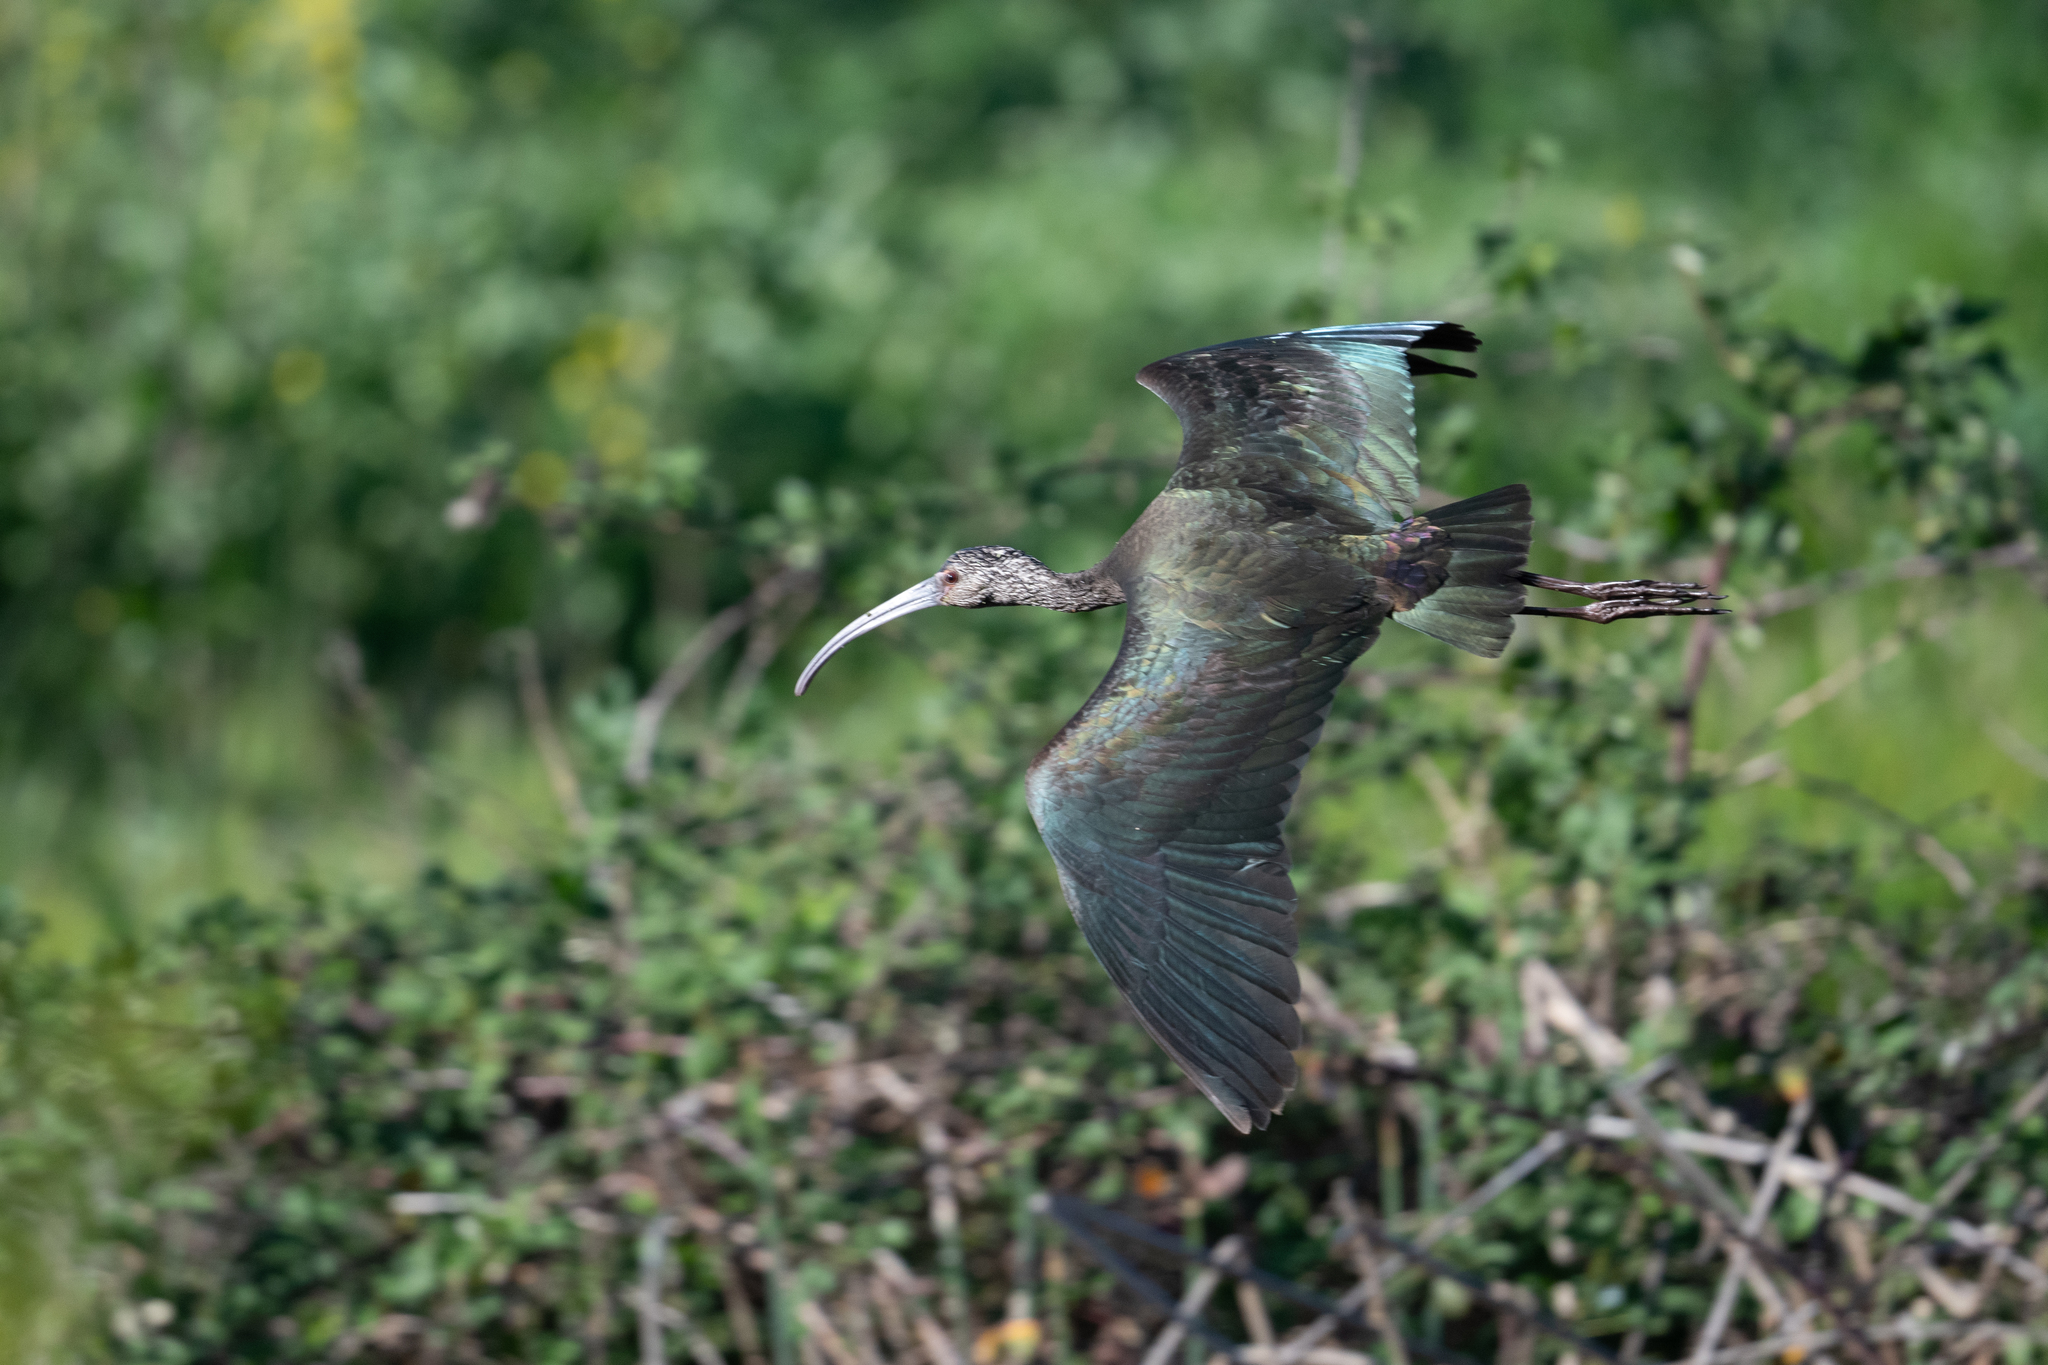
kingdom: Animalia
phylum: Chordata
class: Aves
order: Pelecaniformes
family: Threskiornithidae
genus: Plegadis
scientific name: Plegadis chihi
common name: White-faced ibis
